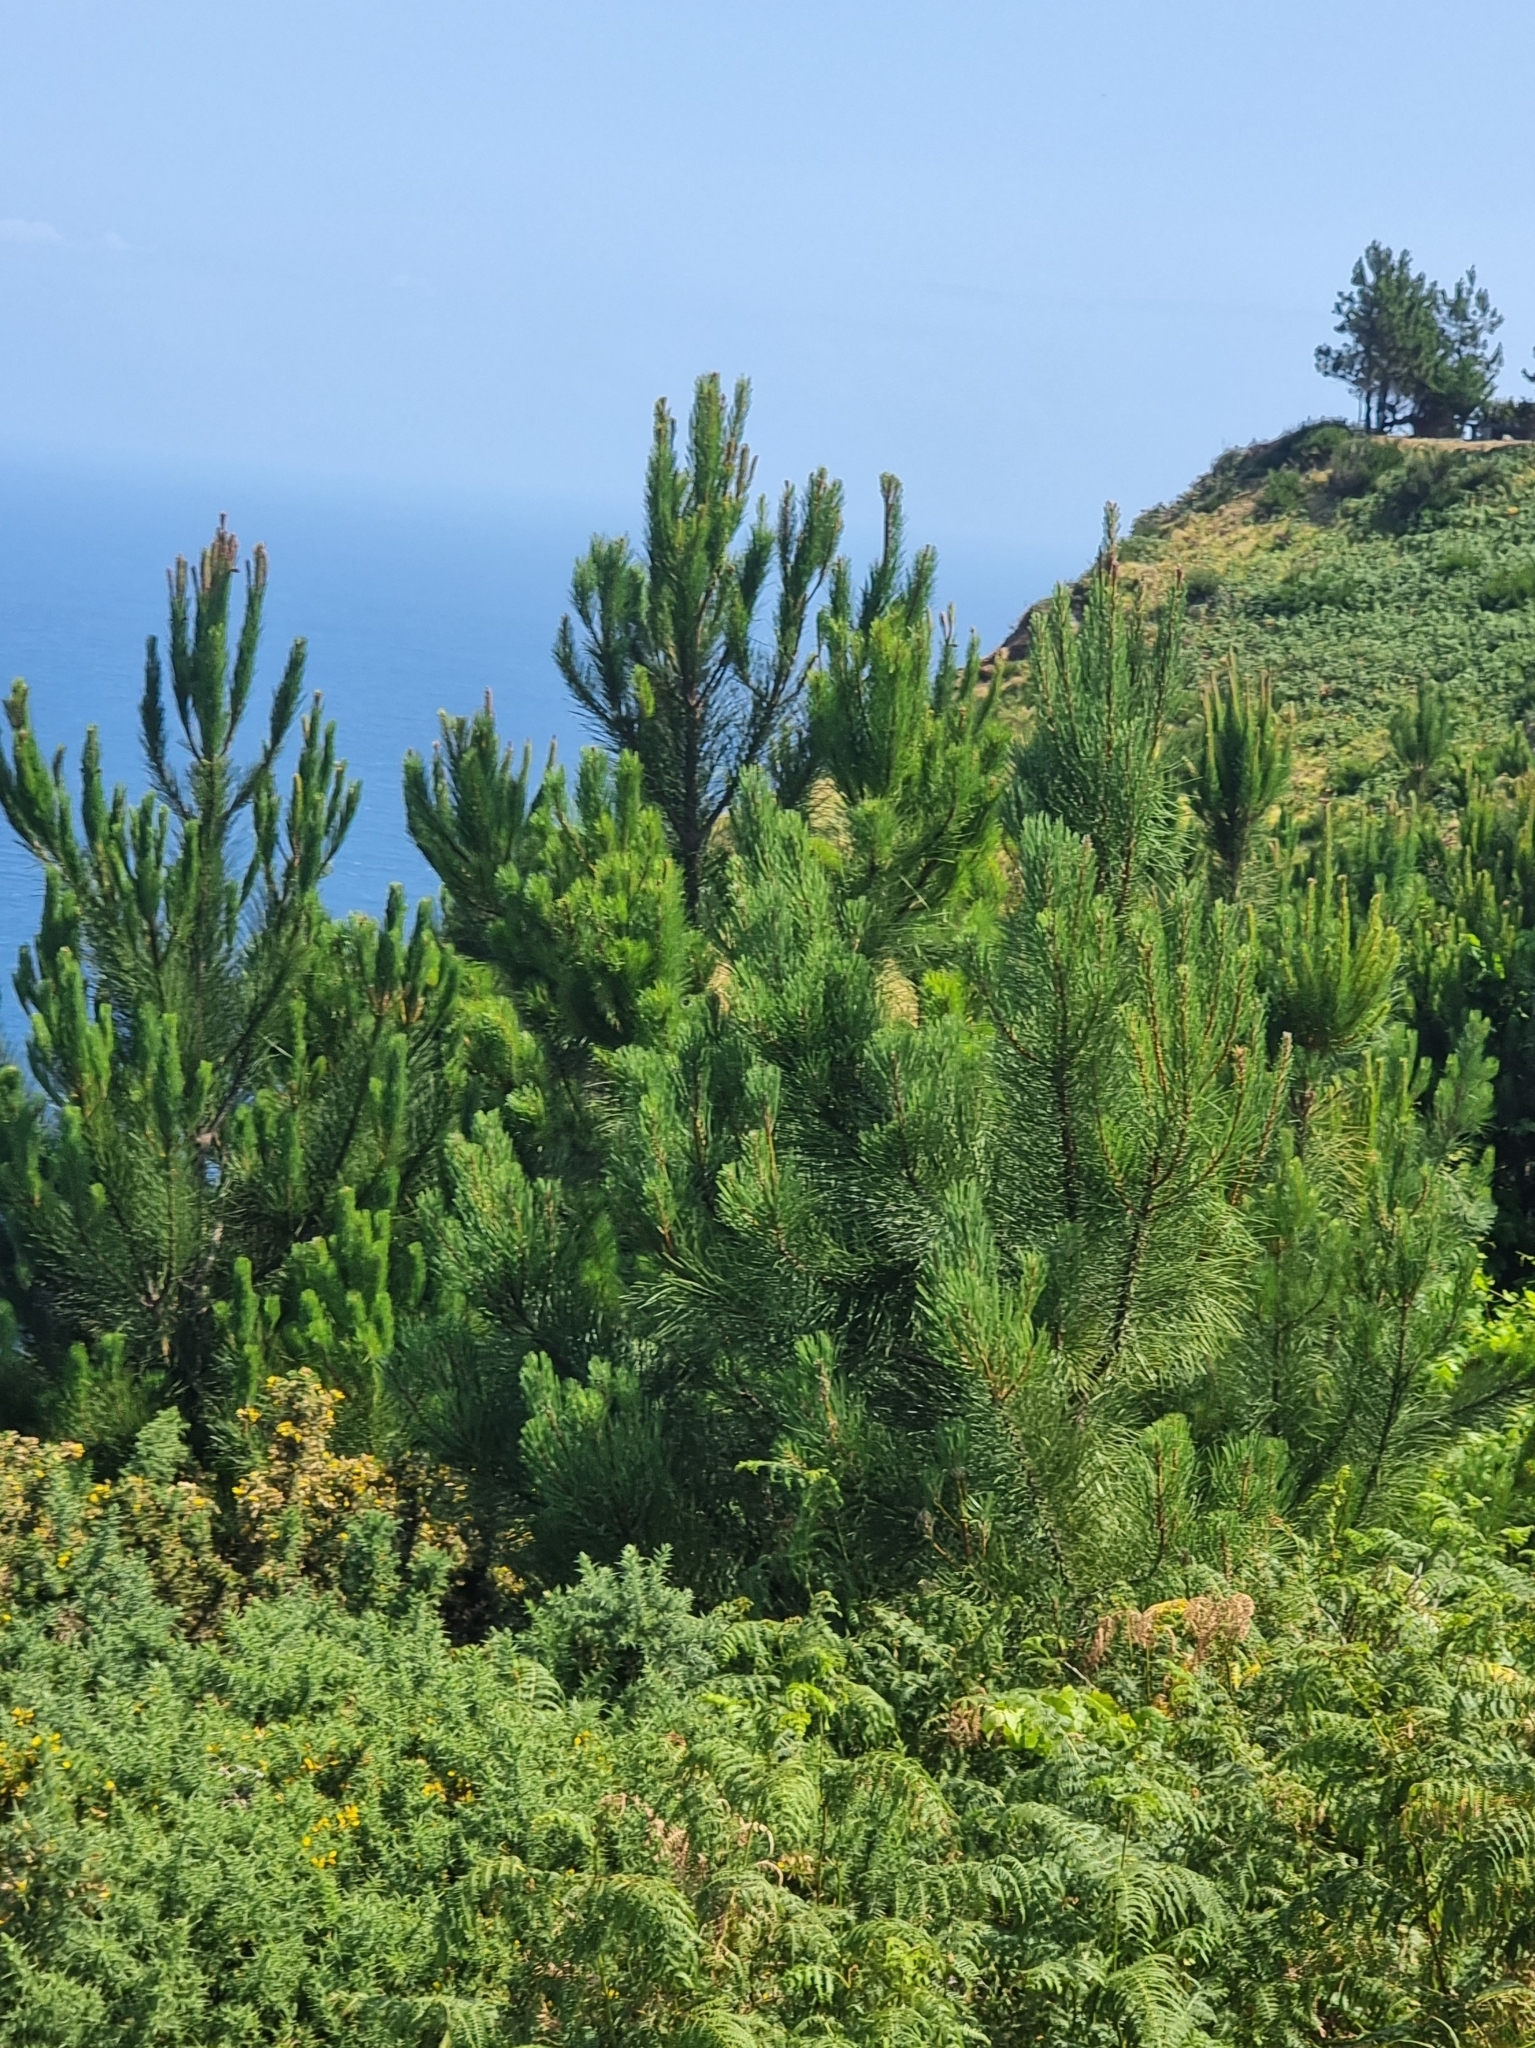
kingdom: Plantae
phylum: Tracheophyta
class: Pinopsida
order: Pinales
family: Pinaceae
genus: Pinus
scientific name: Pinus pinaster
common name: Maritime pine
